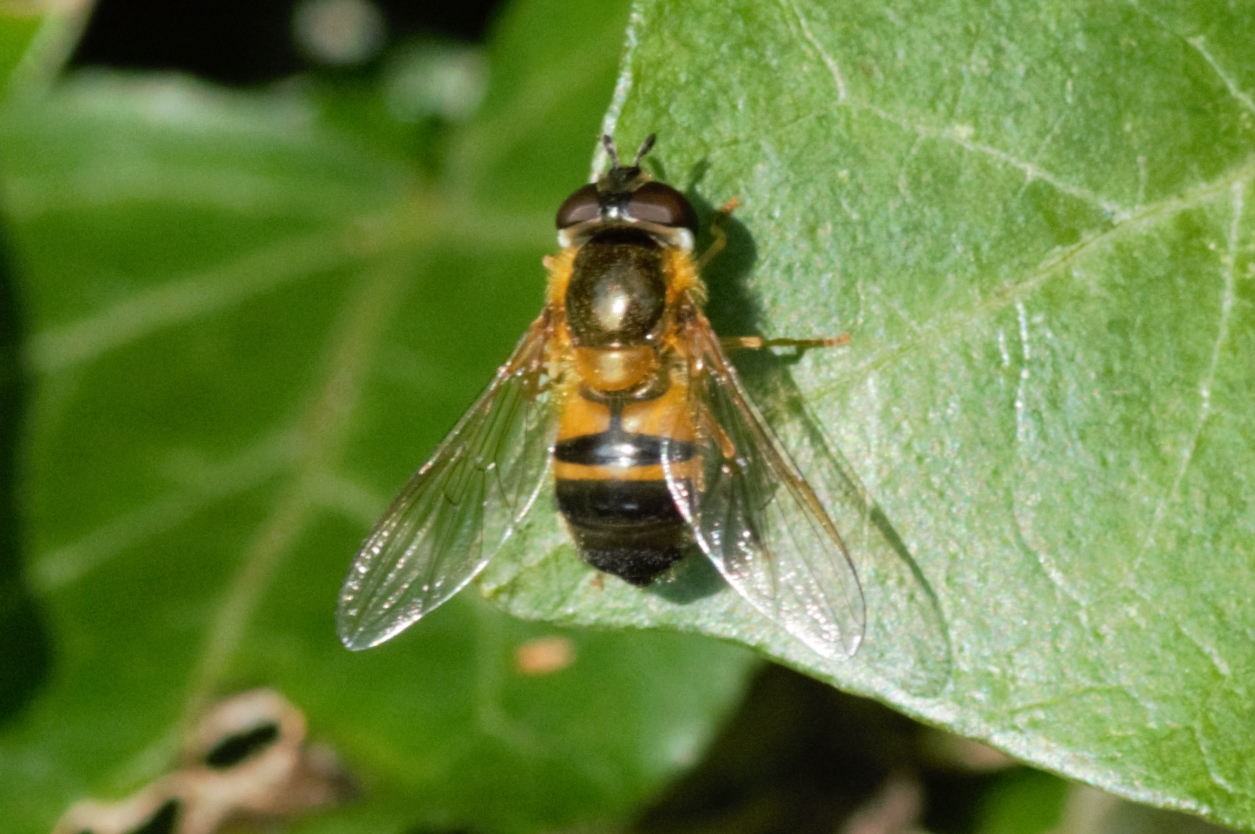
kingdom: Animalia
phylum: Arthropoda
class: Insecta
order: Diptera
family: Syrphidae
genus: Epistrophe
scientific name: Epistrophe eligans
